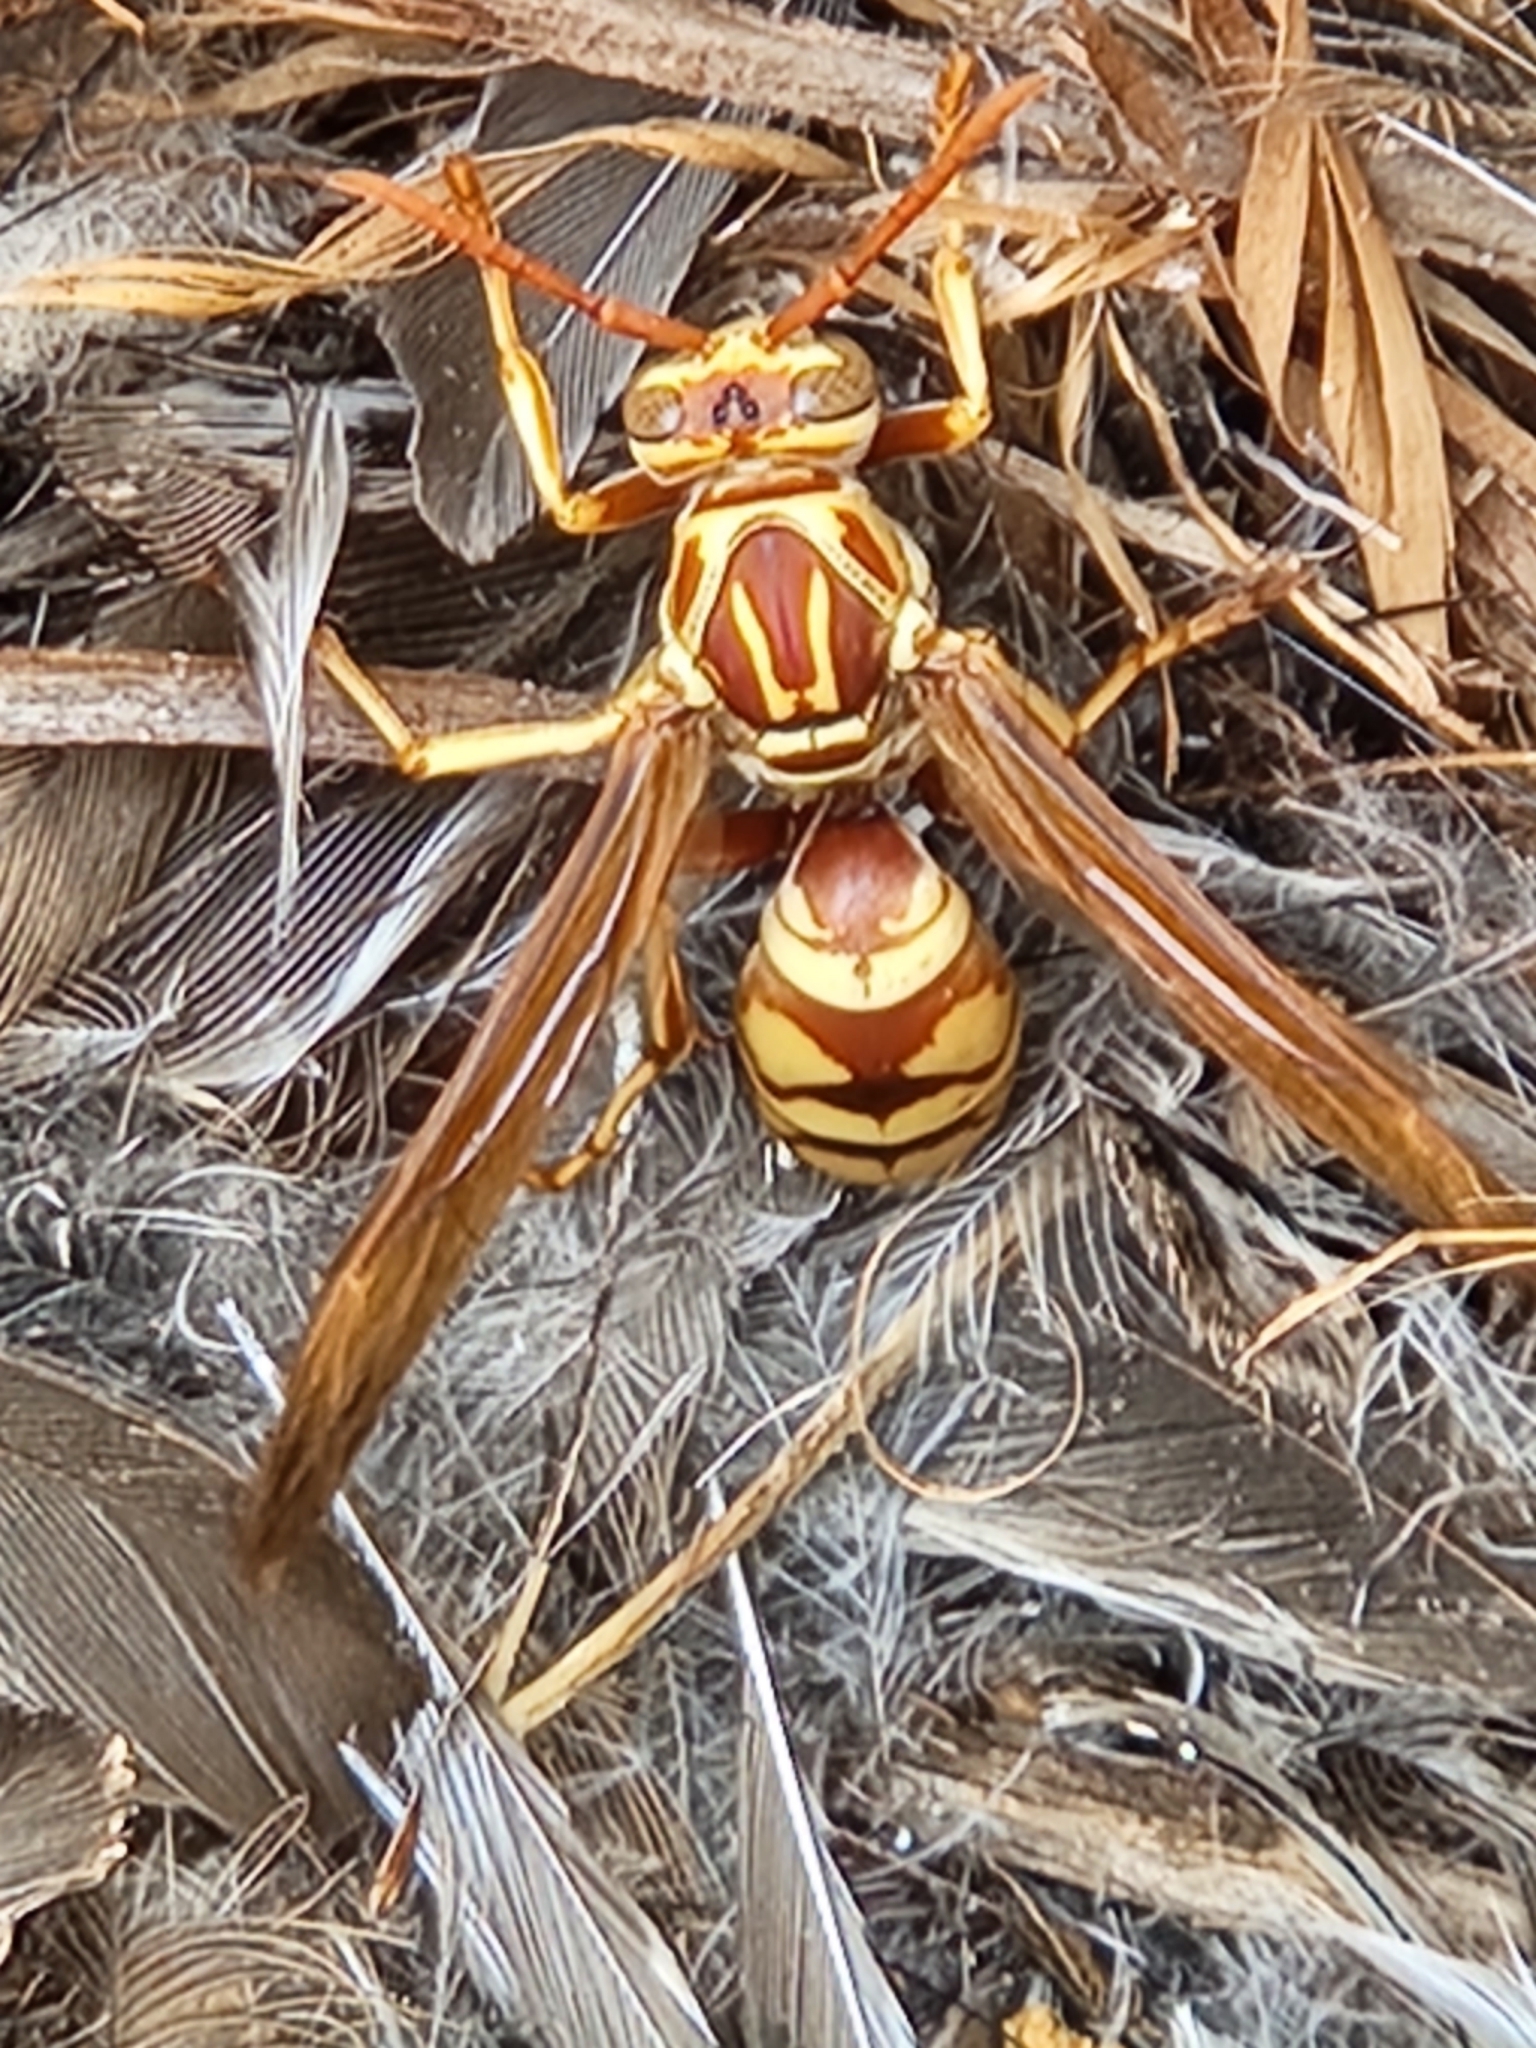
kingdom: Animalia
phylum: Arthropoda
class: Insecta
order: Hymenoptera
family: Eumenidae
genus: Polistes
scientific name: Polistes apachus
